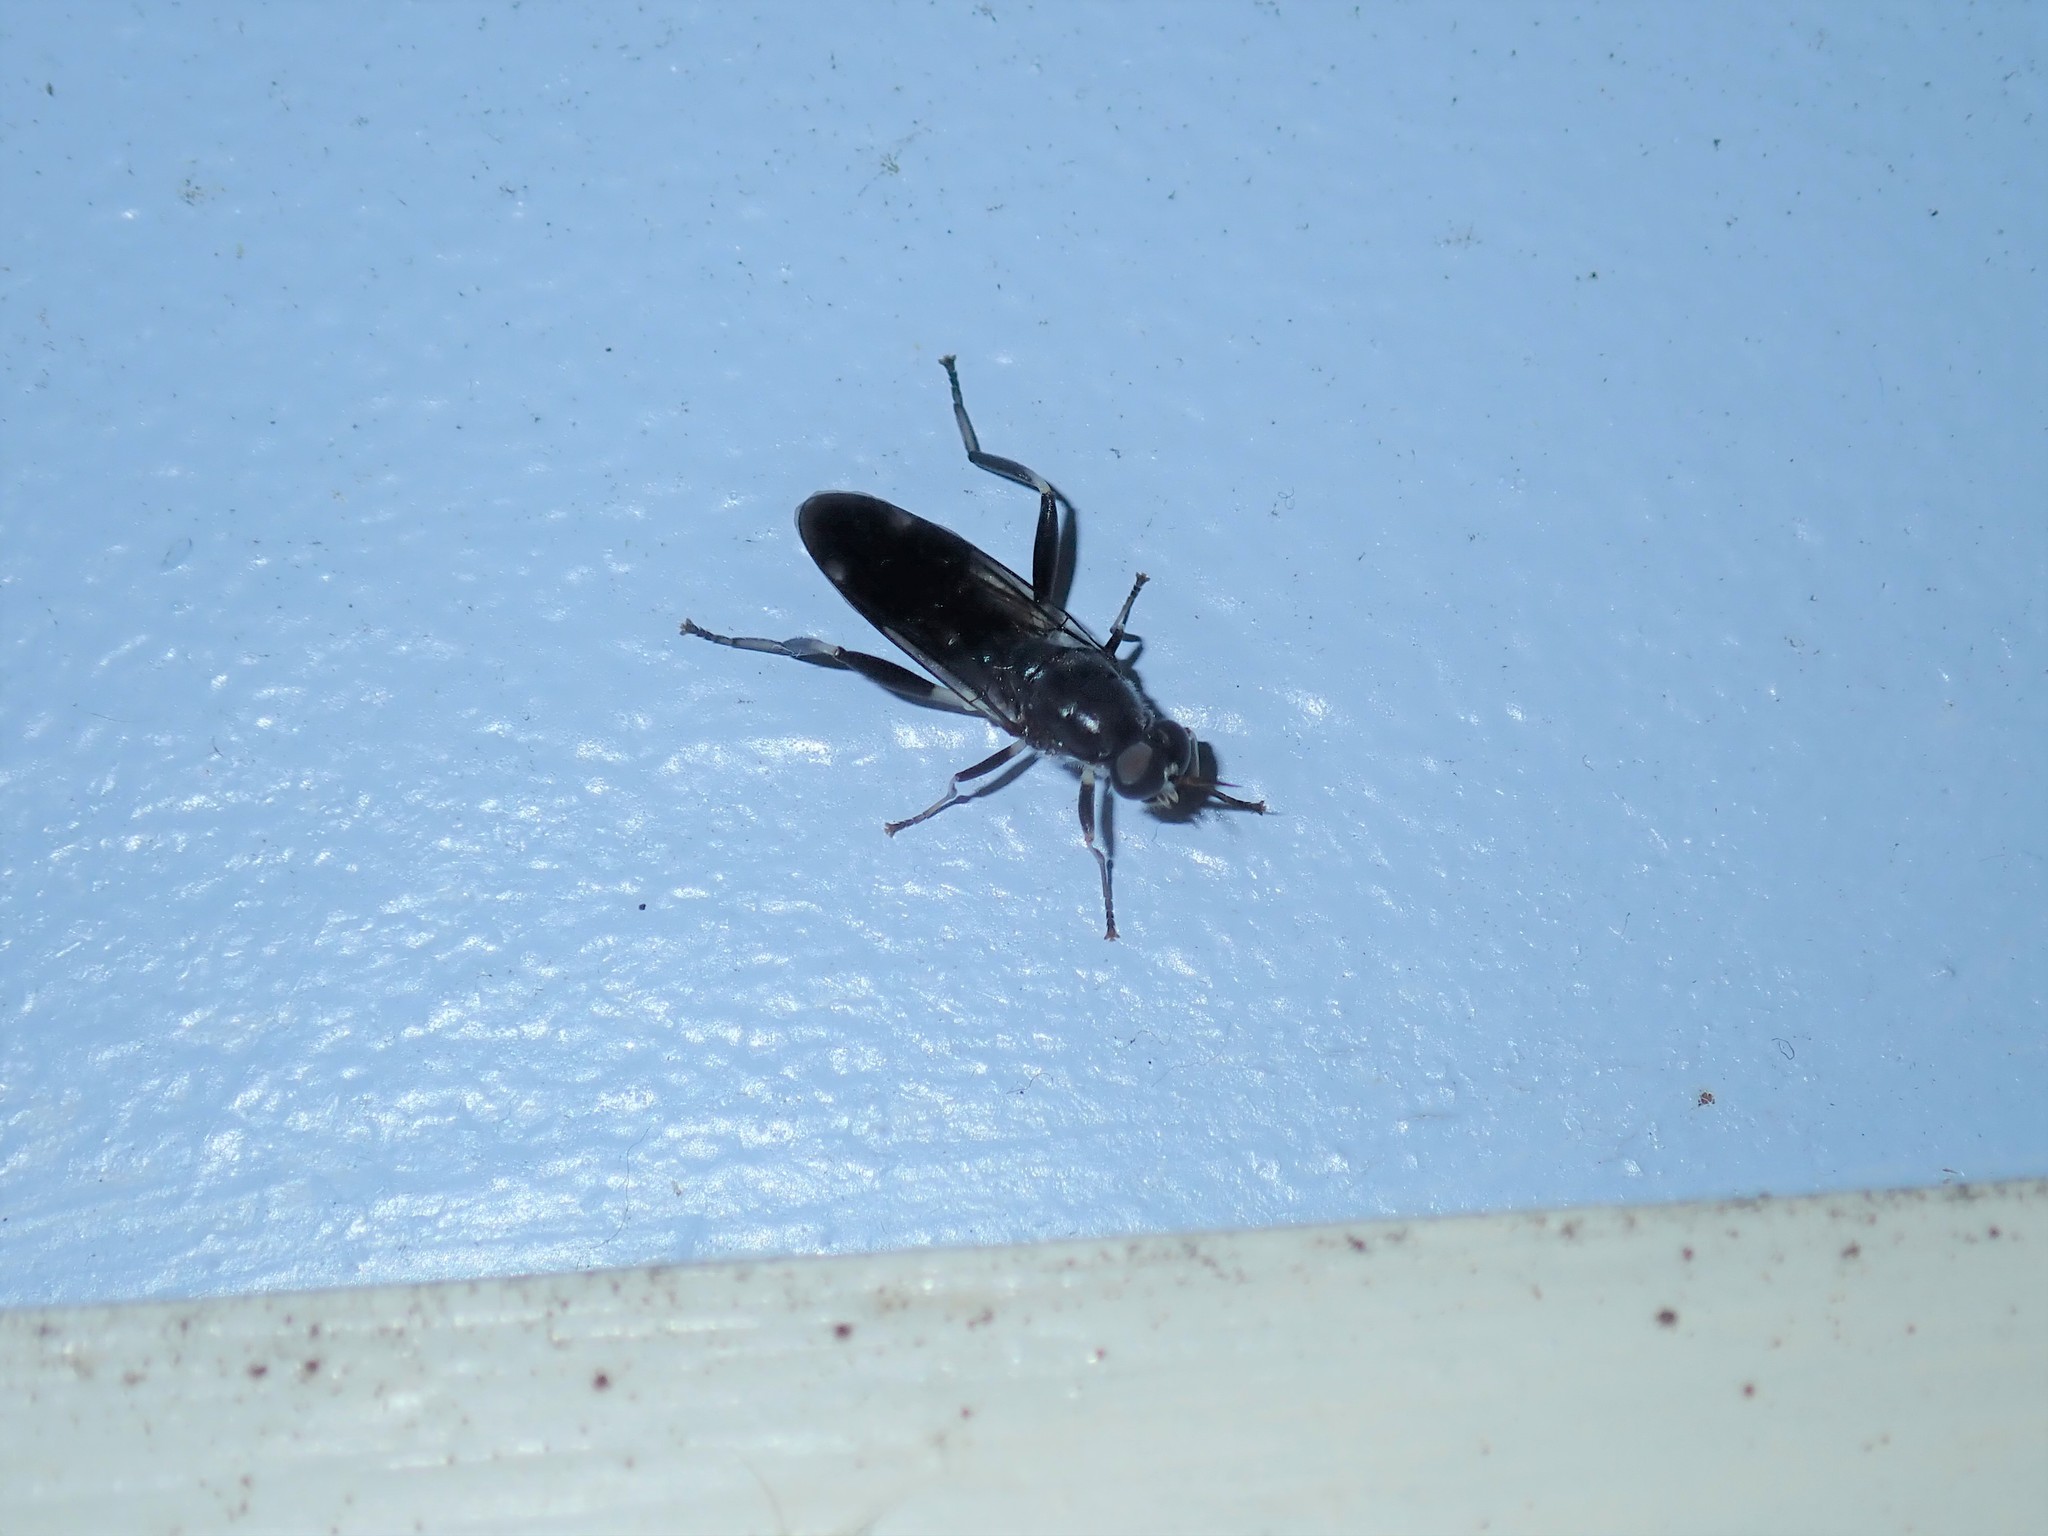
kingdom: Animalia
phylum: Arthropoda
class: Insecta
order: Diptera
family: Stratiomyidae
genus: Exaireta
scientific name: Exaireta spinigera
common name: Blue soldier fly
